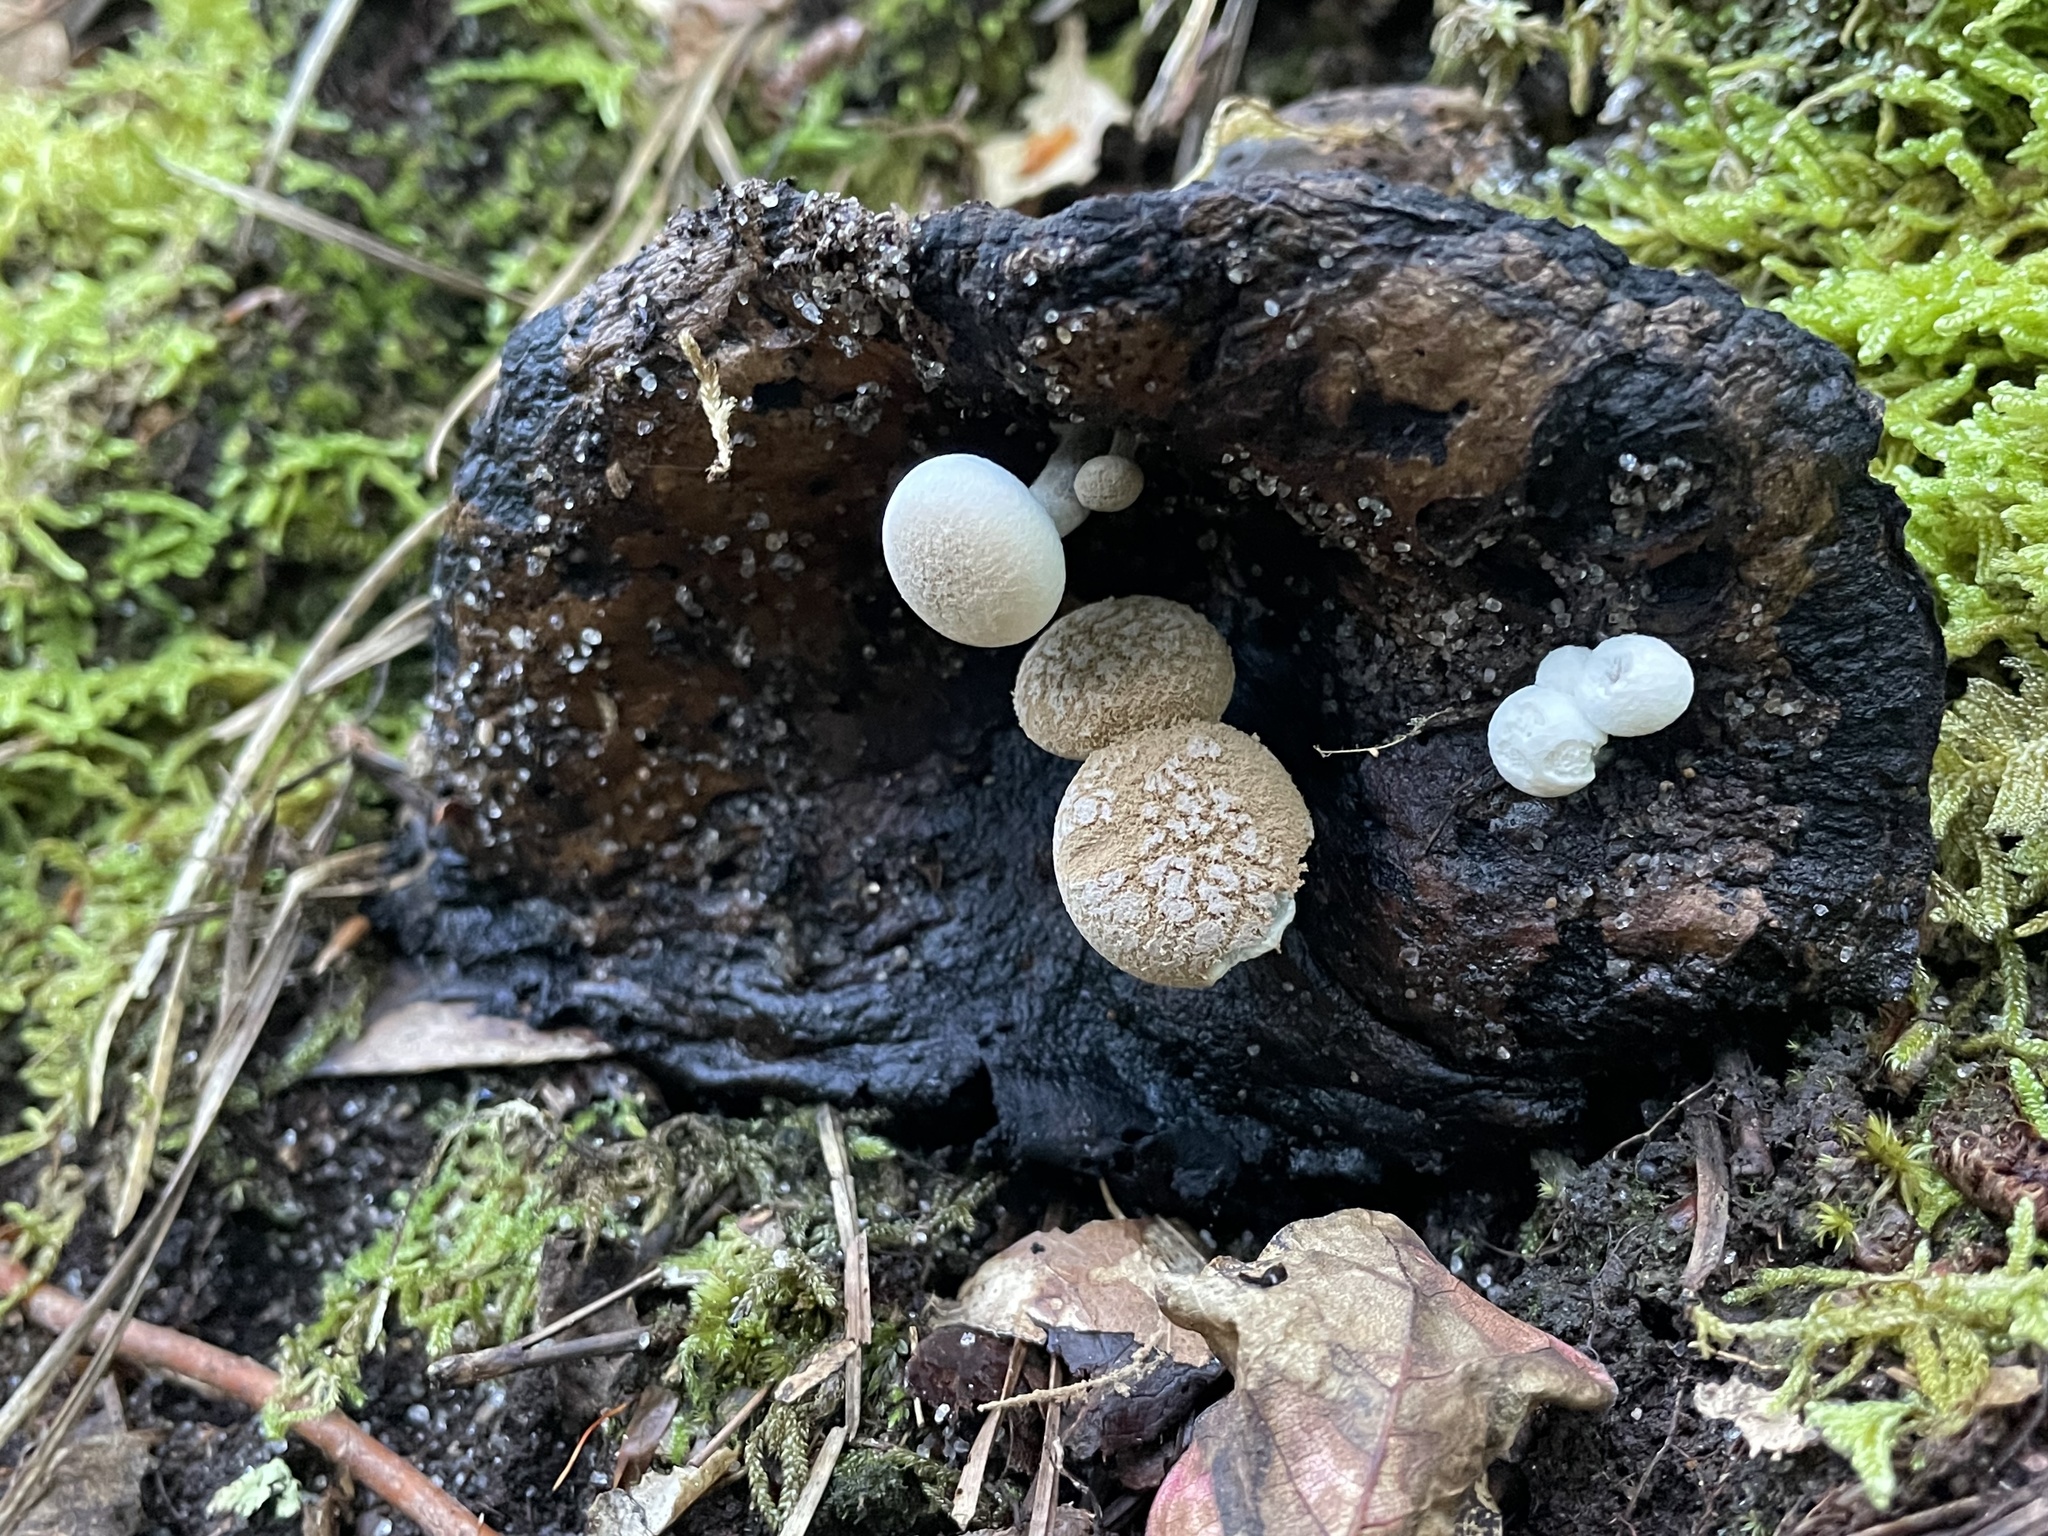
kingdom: Fungi
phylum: Basidiomycota
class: Agaricomycetes
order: Agaricales
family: Lyophyllaceae
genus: Asterophora
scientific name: Asterophora lycoperdoides
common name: Pick-a-back toadstool
